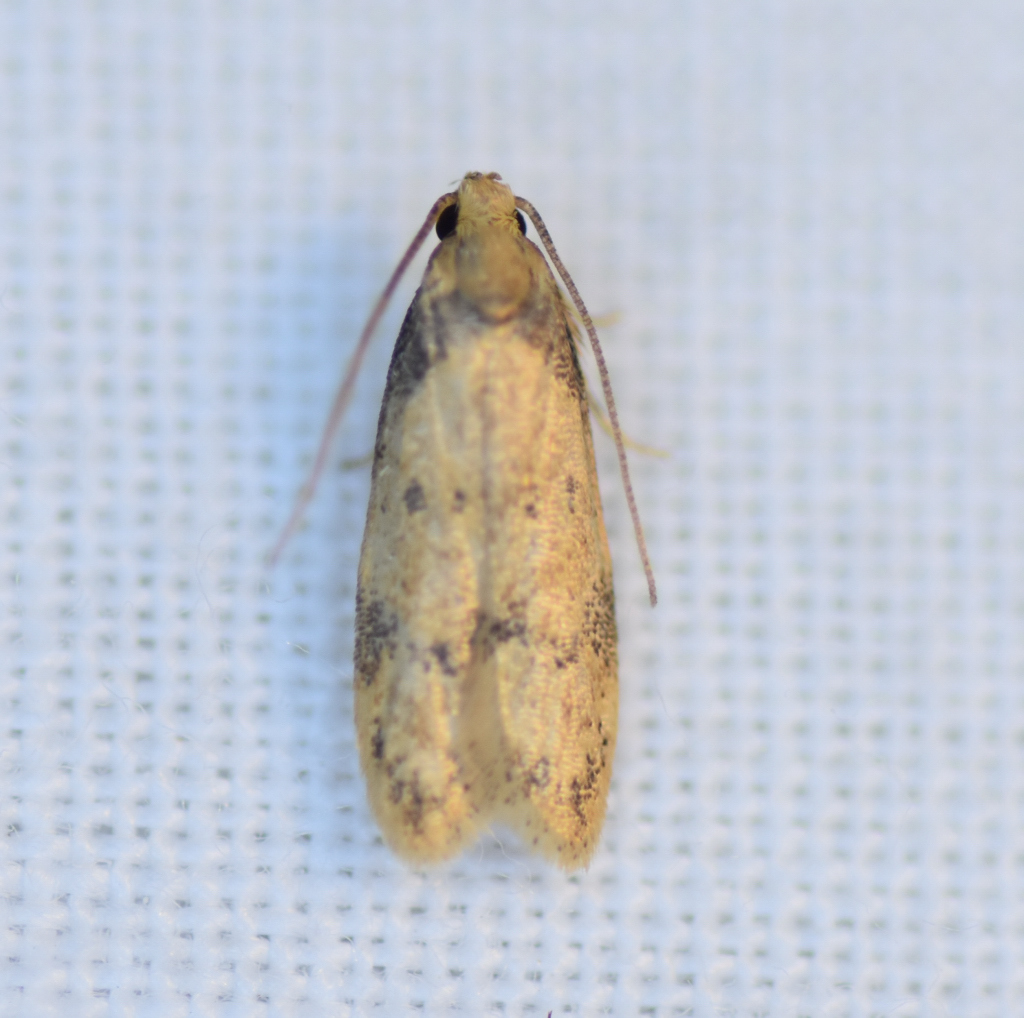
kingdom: Animalia
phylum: Arthropoda
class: Insecta
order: Lepidoptera
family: Autostichidae
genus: Gerdana
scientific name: Gerdana caritella
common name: Gerdana moth
